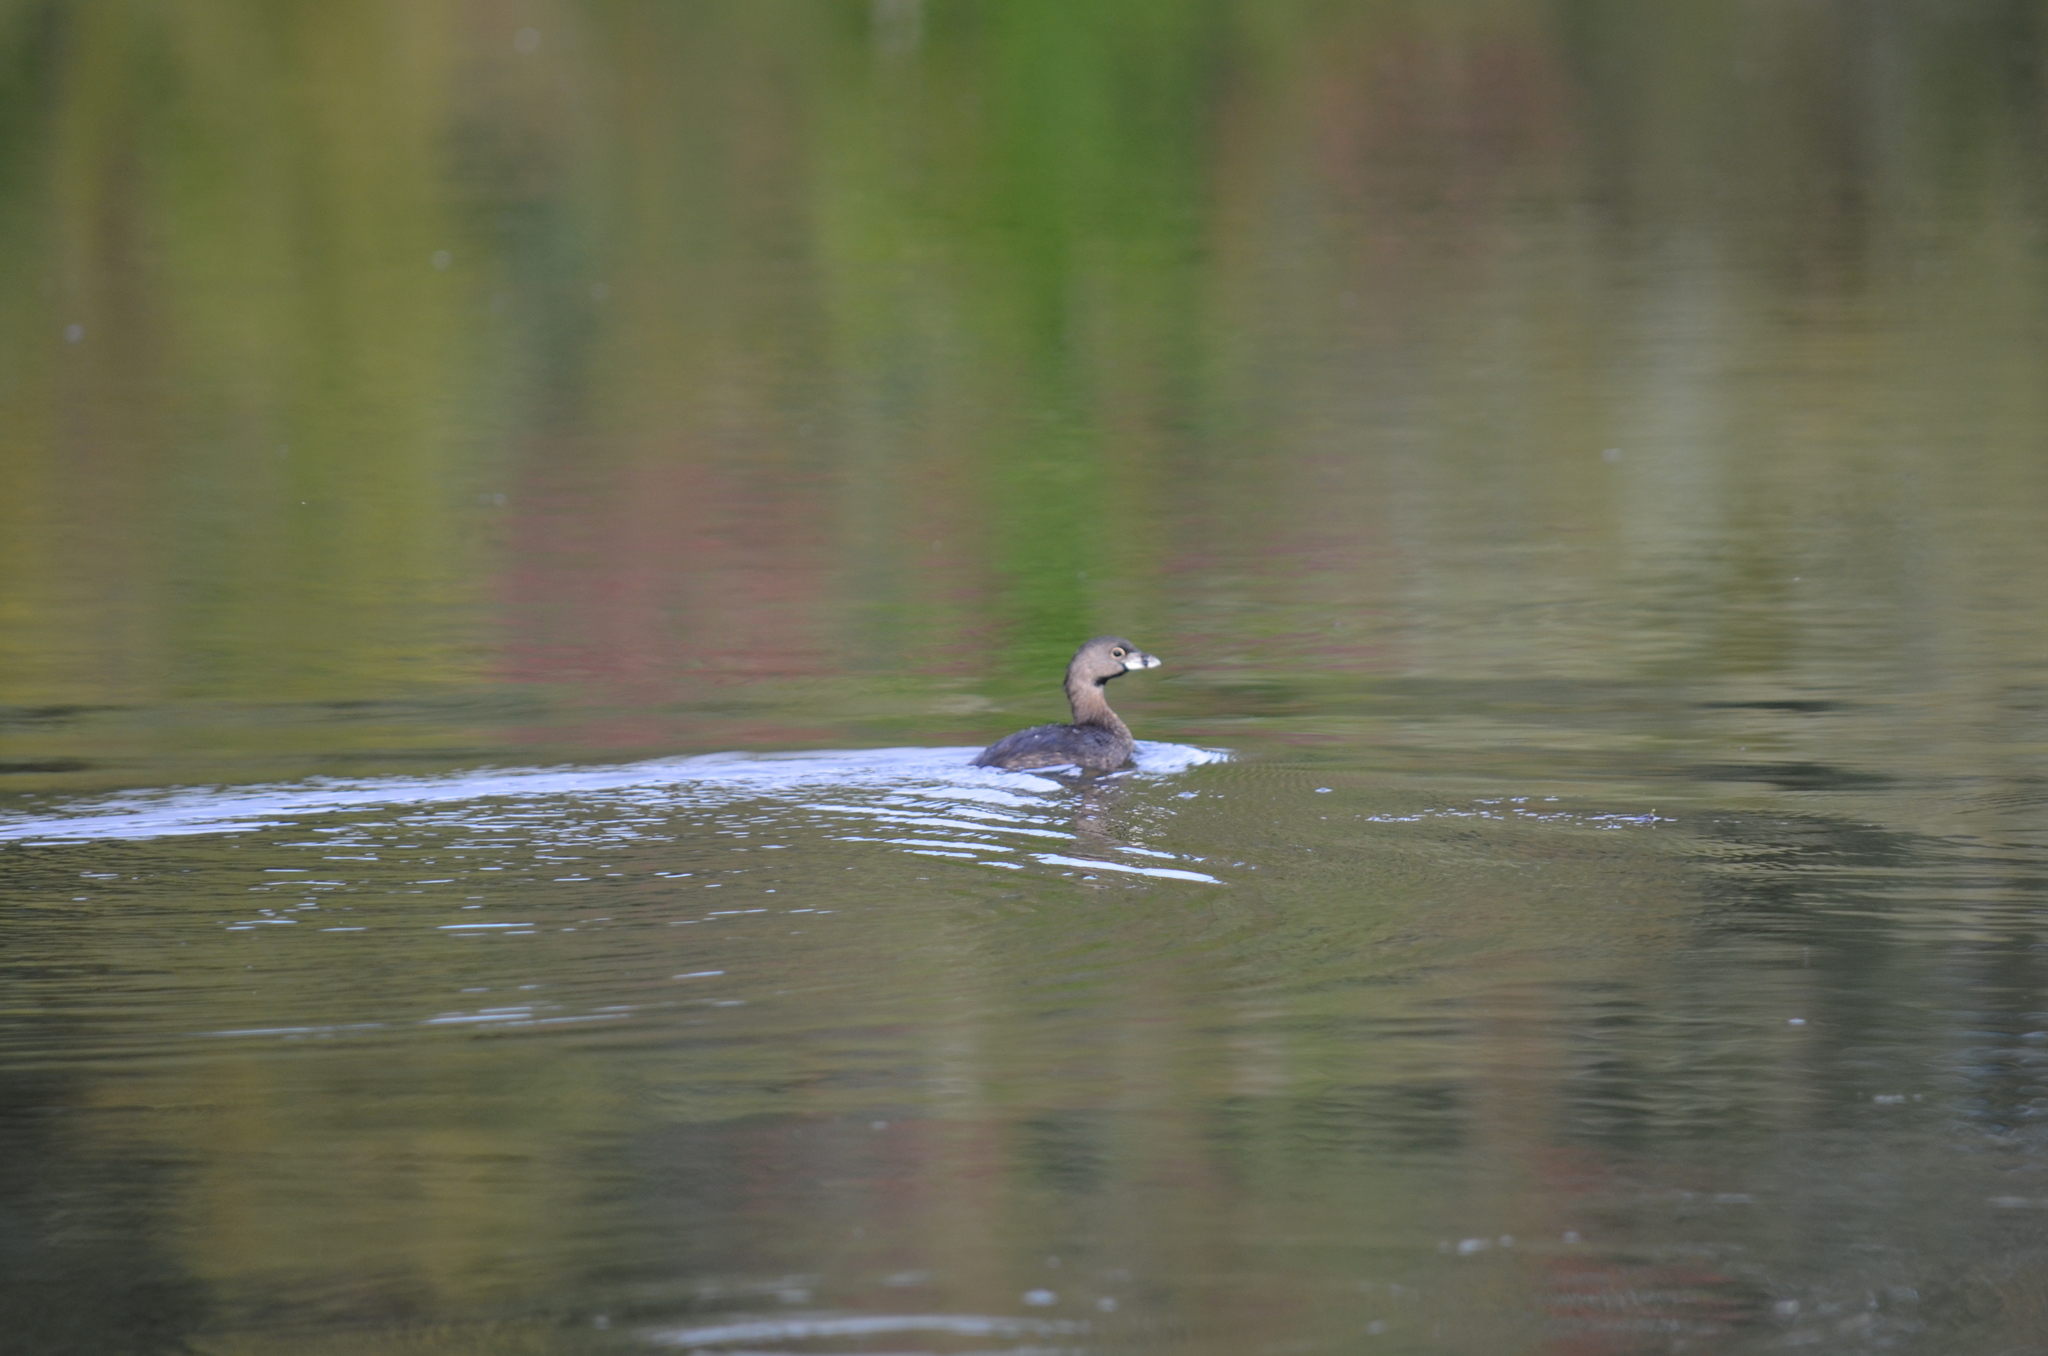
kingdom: Animalia
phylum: Chordata
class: Aves
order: Podicipediformes
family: Podicipedidae
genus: Podilymbus
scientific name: Podilymbus podiceps
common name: Pied-billed grebe
